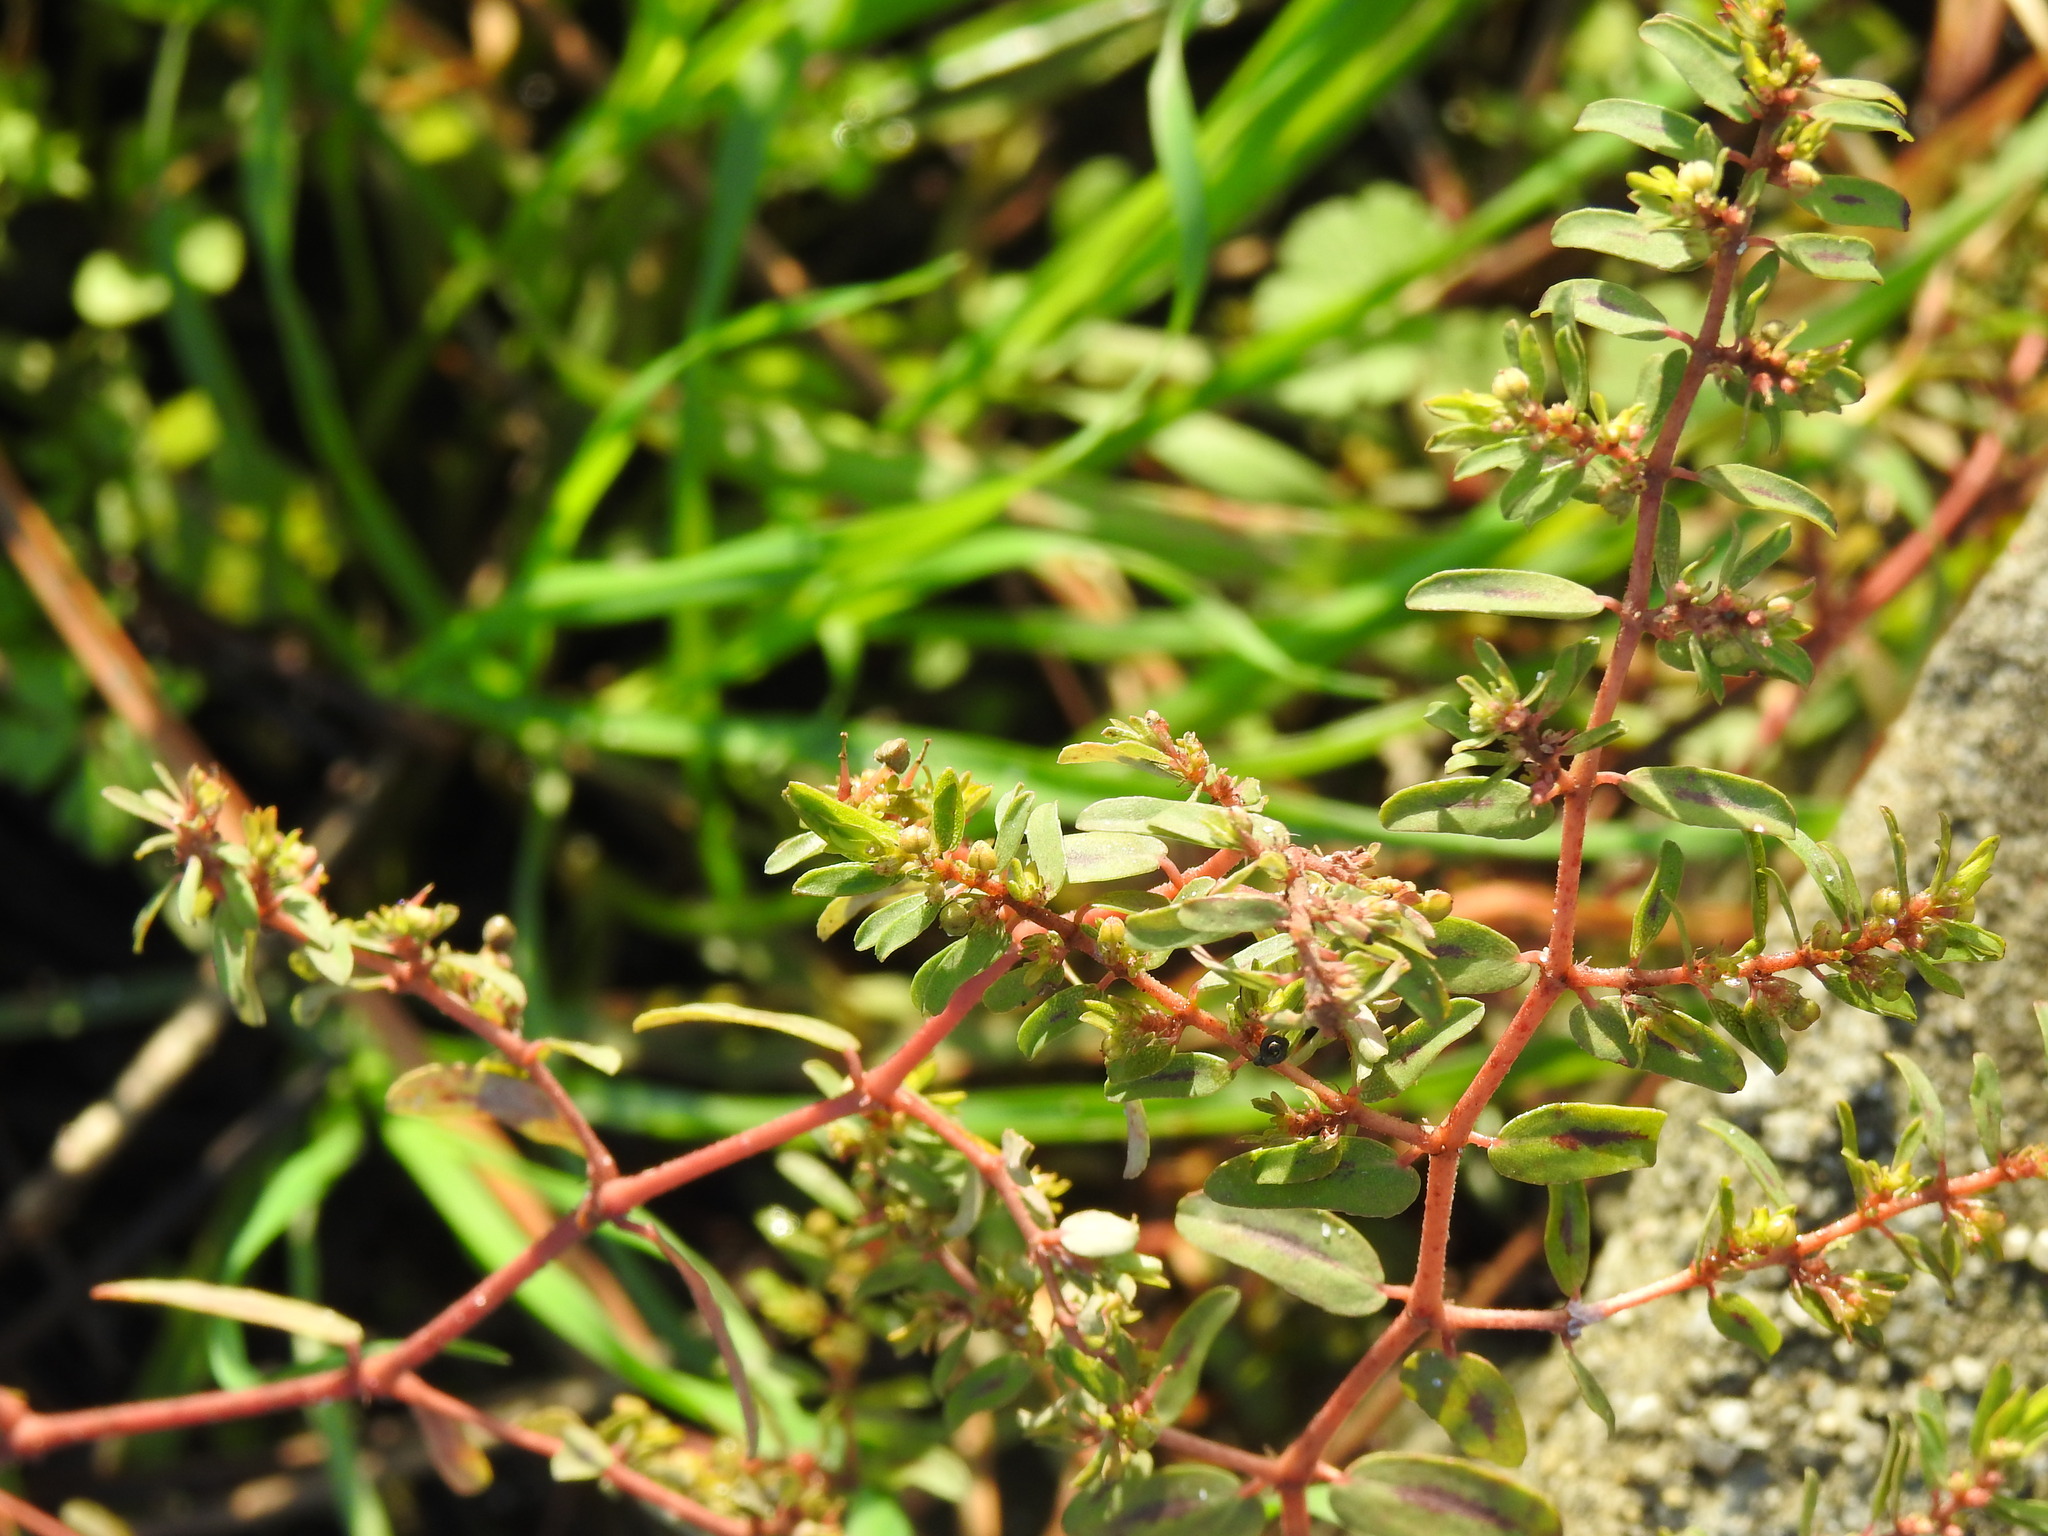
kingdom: Plantae
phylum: Tracheophyta
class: Magnoliopsida
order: Malpighiales
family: Euphorbiaceae
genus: Euphorbia
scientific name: Euphorbia maculata
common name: Spotted spurge
